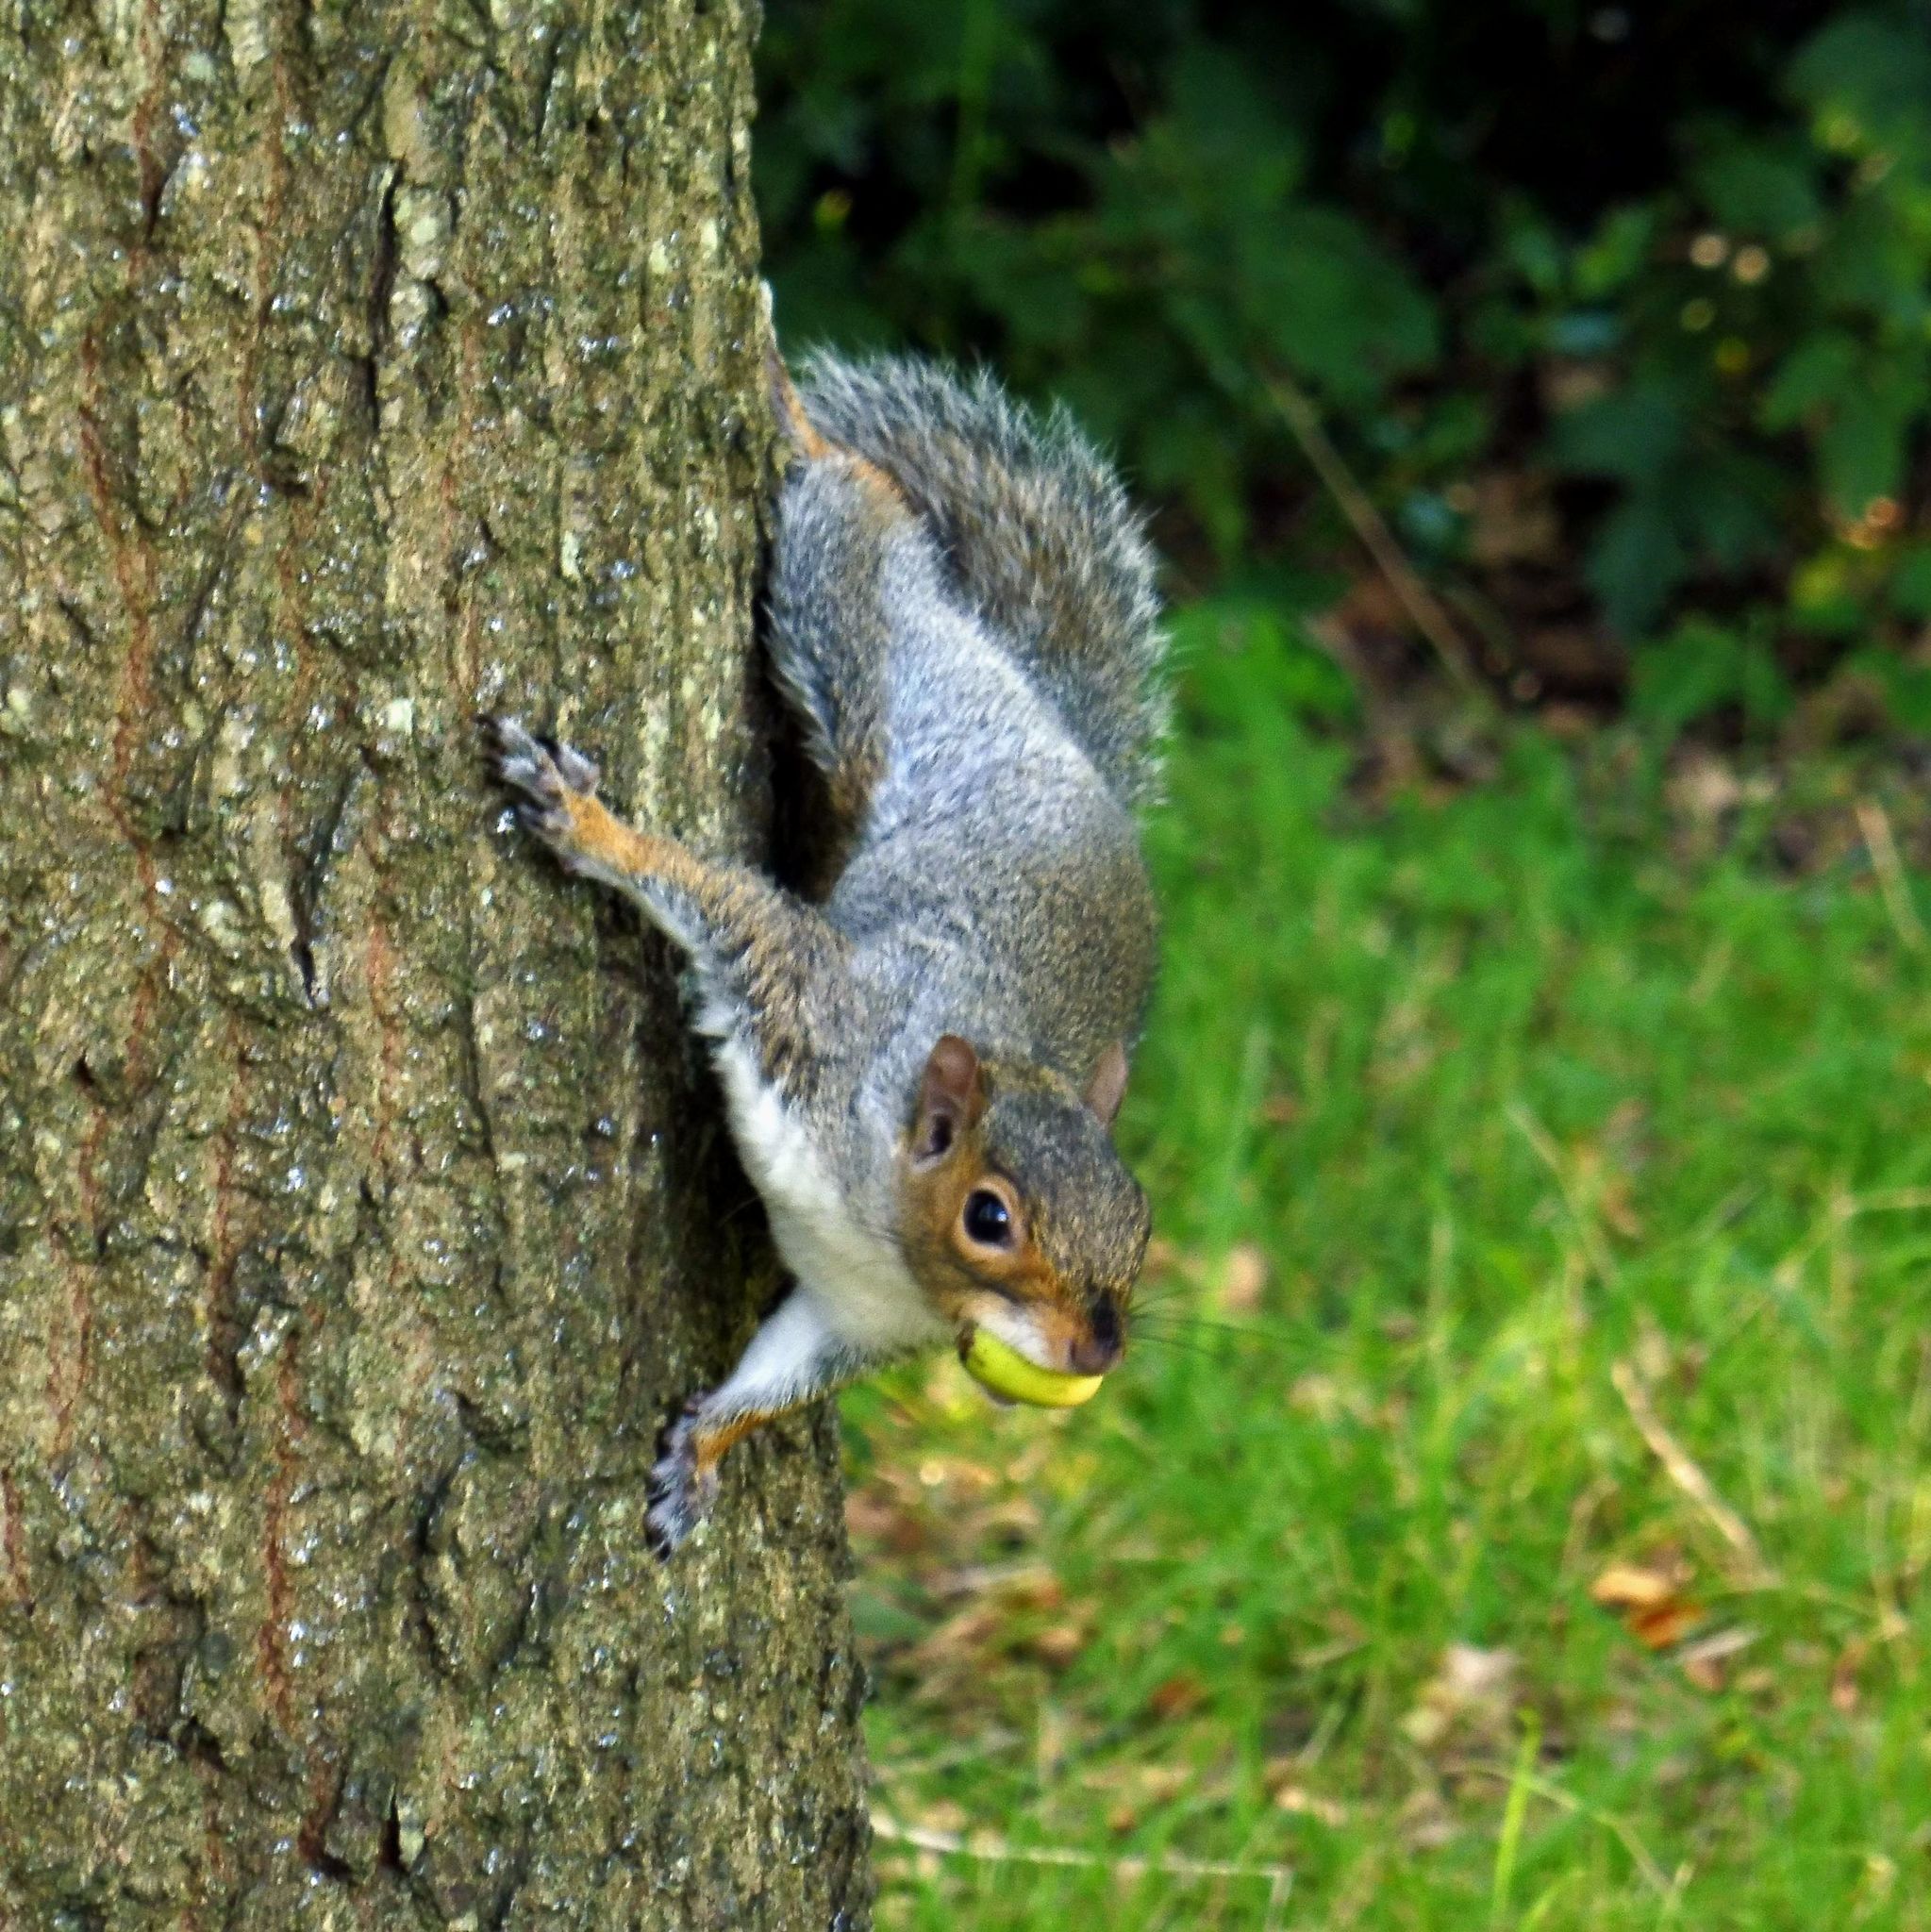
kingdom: Animalia
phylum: Chordata
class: Mammalia
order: Rodentia
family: Sciuridae
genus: Sciurus
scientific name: Sciurus carolinensis
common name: Eastern gray squirrel
